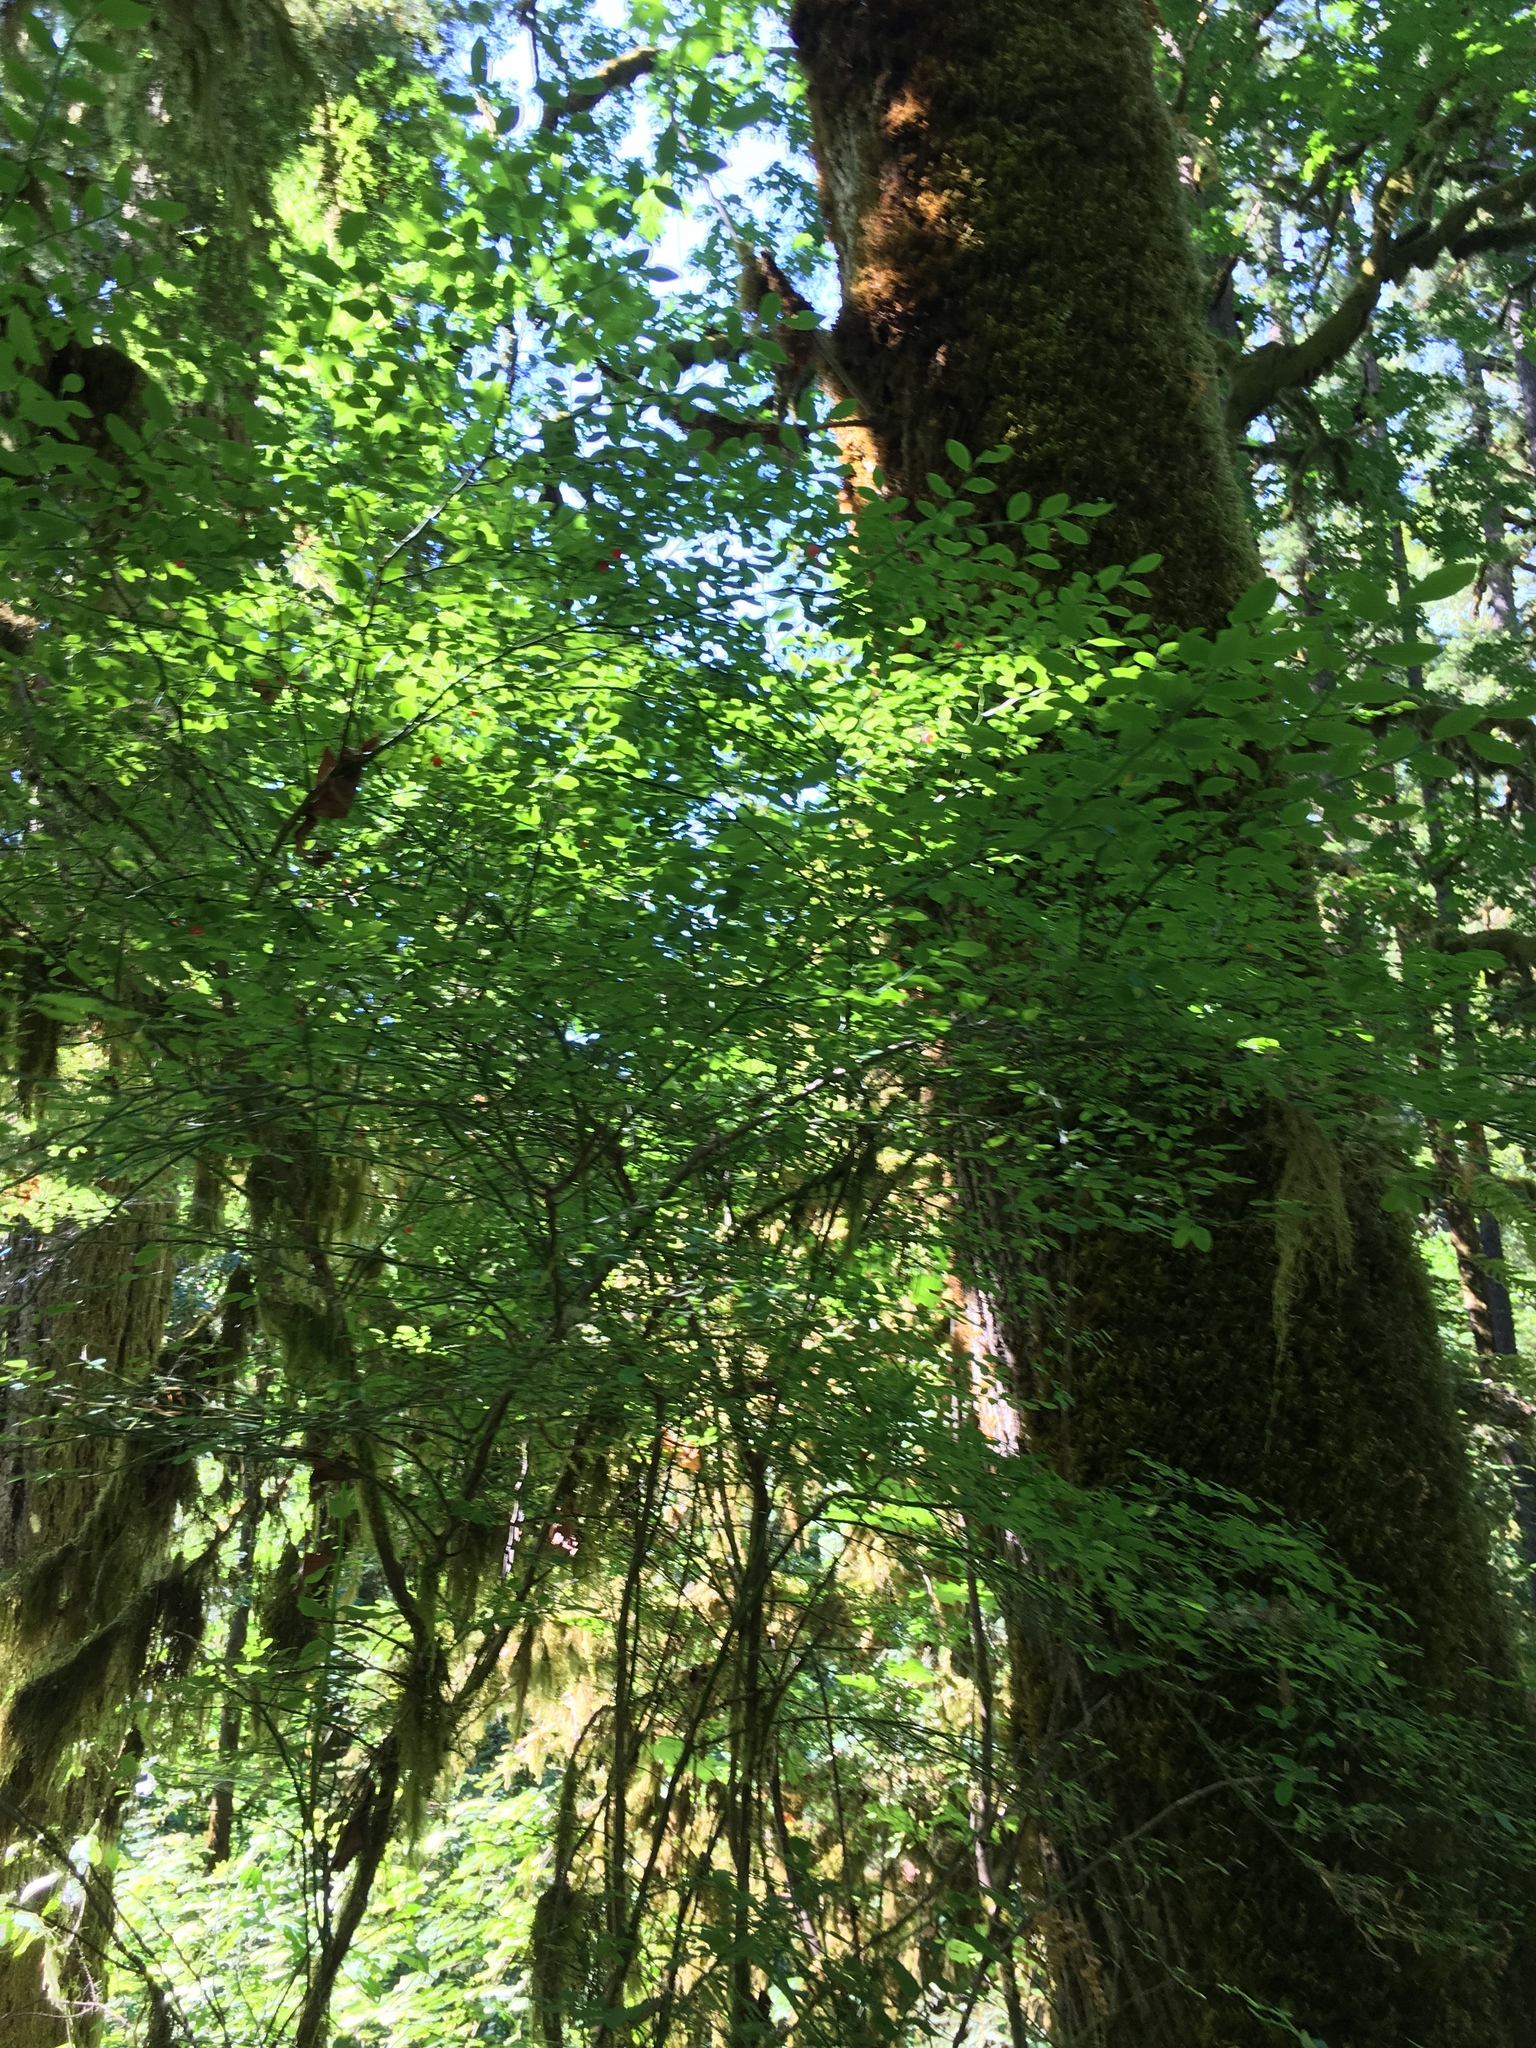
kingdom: Plantae
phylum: Tracheophyta
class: Magnoliopsida
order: Ericales
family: Ericaceae
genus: Vaccinium
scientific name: Vaccinium parvifolium
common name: Red-huckleberry
